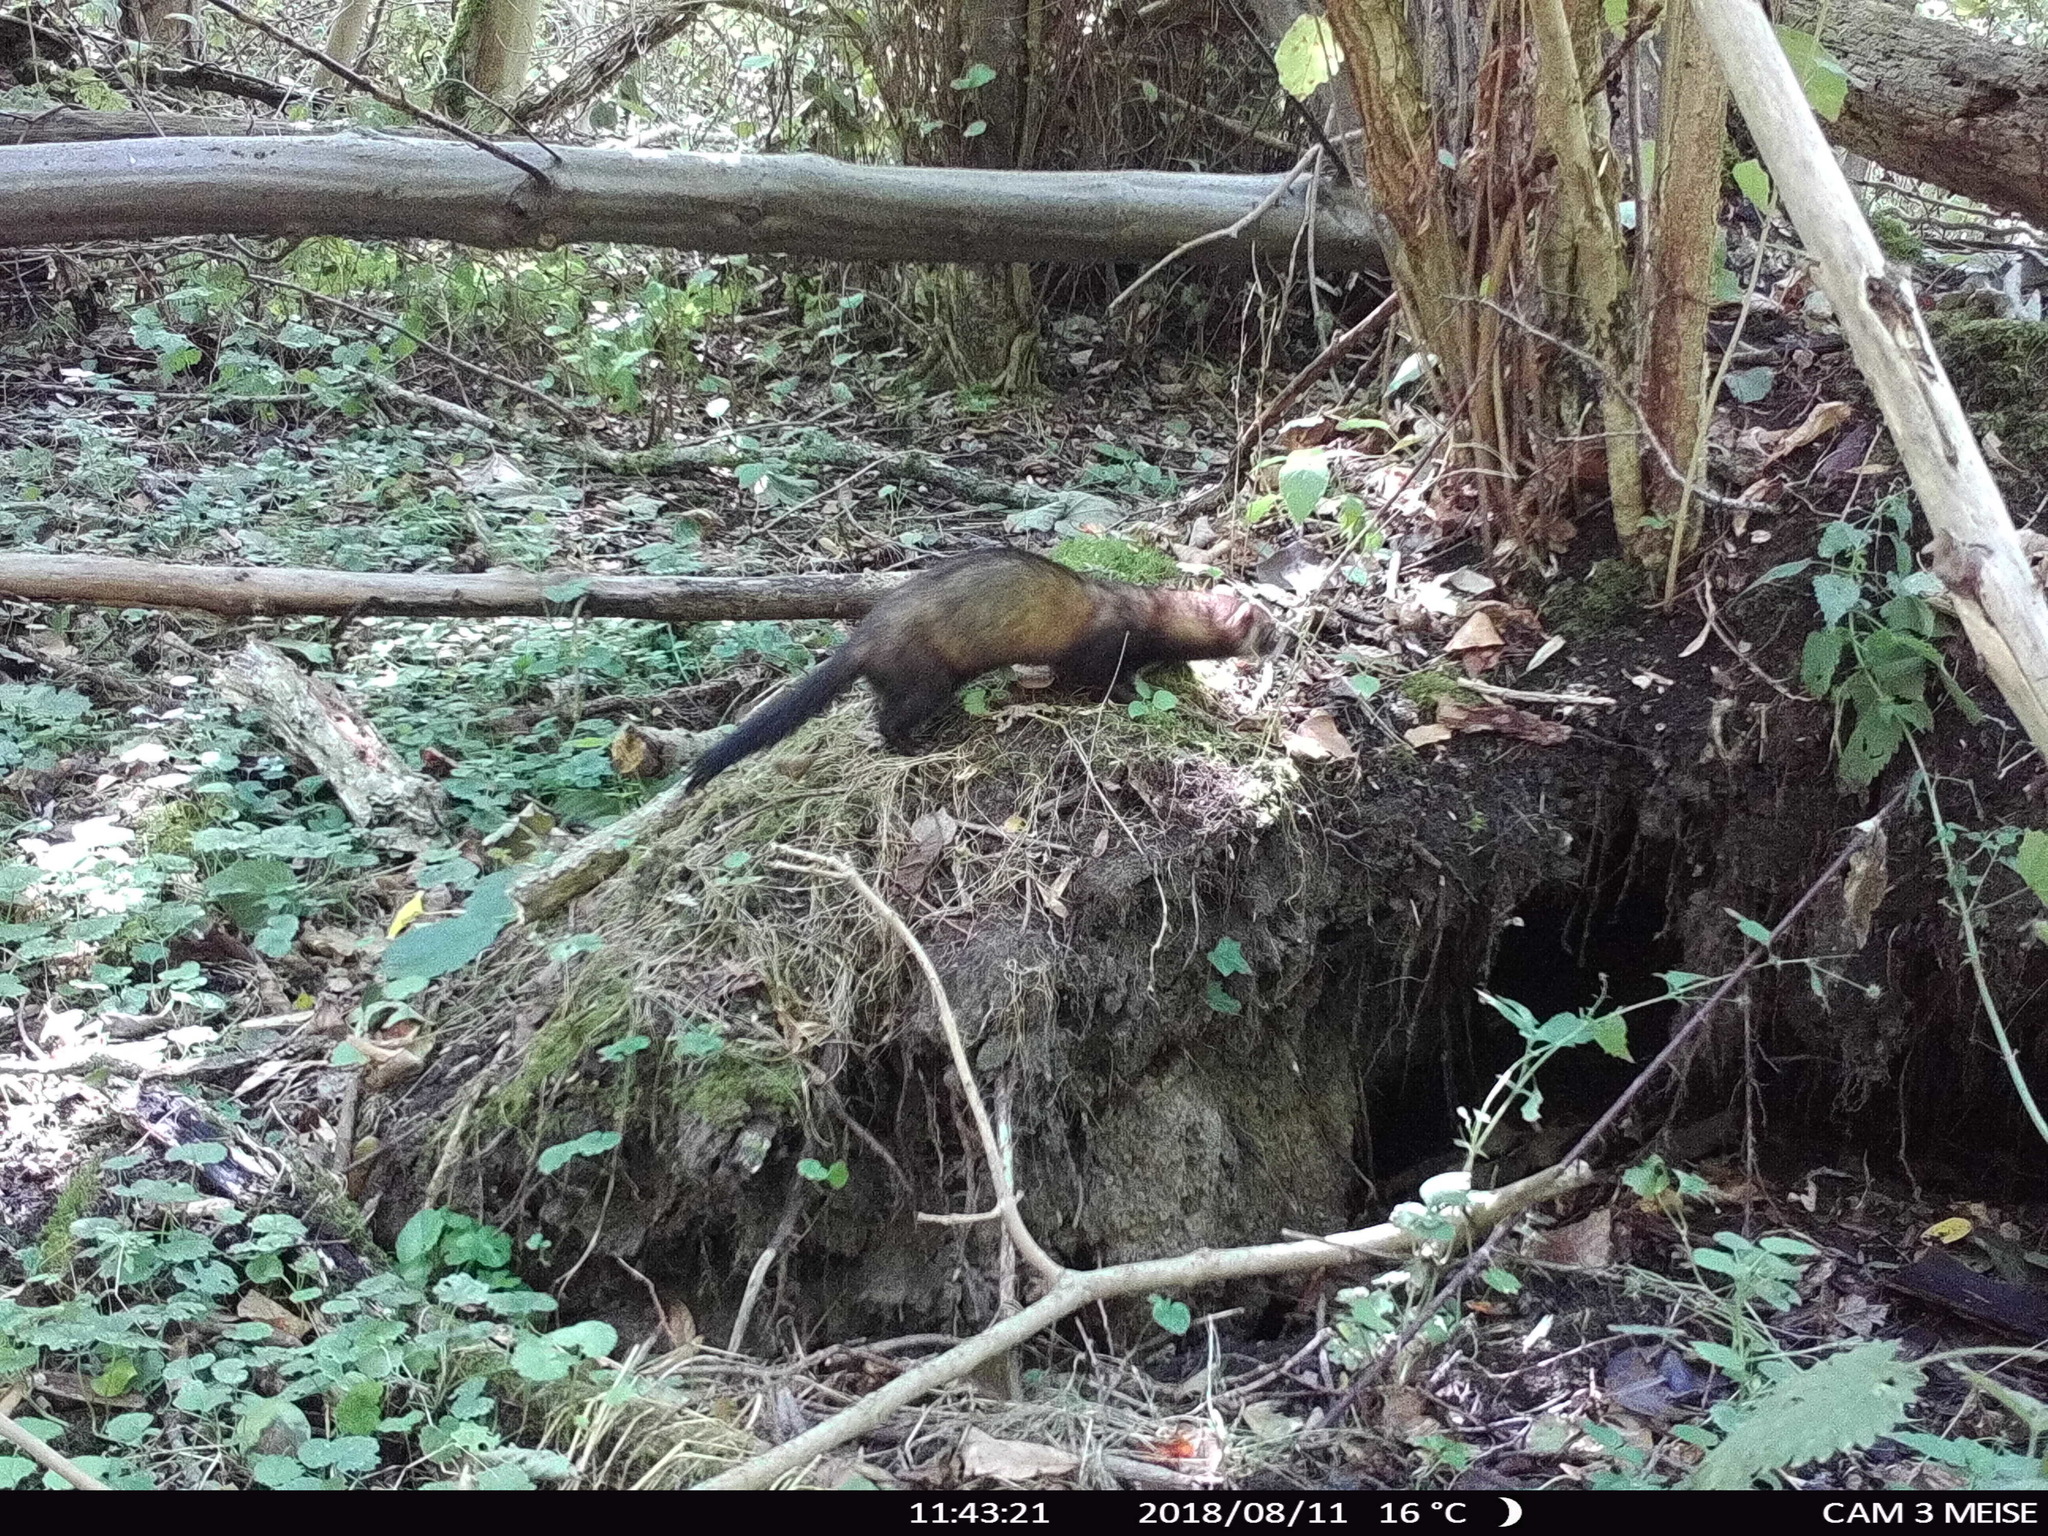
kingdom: Animalia
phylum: Chordata
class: Mammalia
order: Carnivora
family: Mustelidae
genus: Mustela
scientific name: Mustela putorius
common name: European polecat
